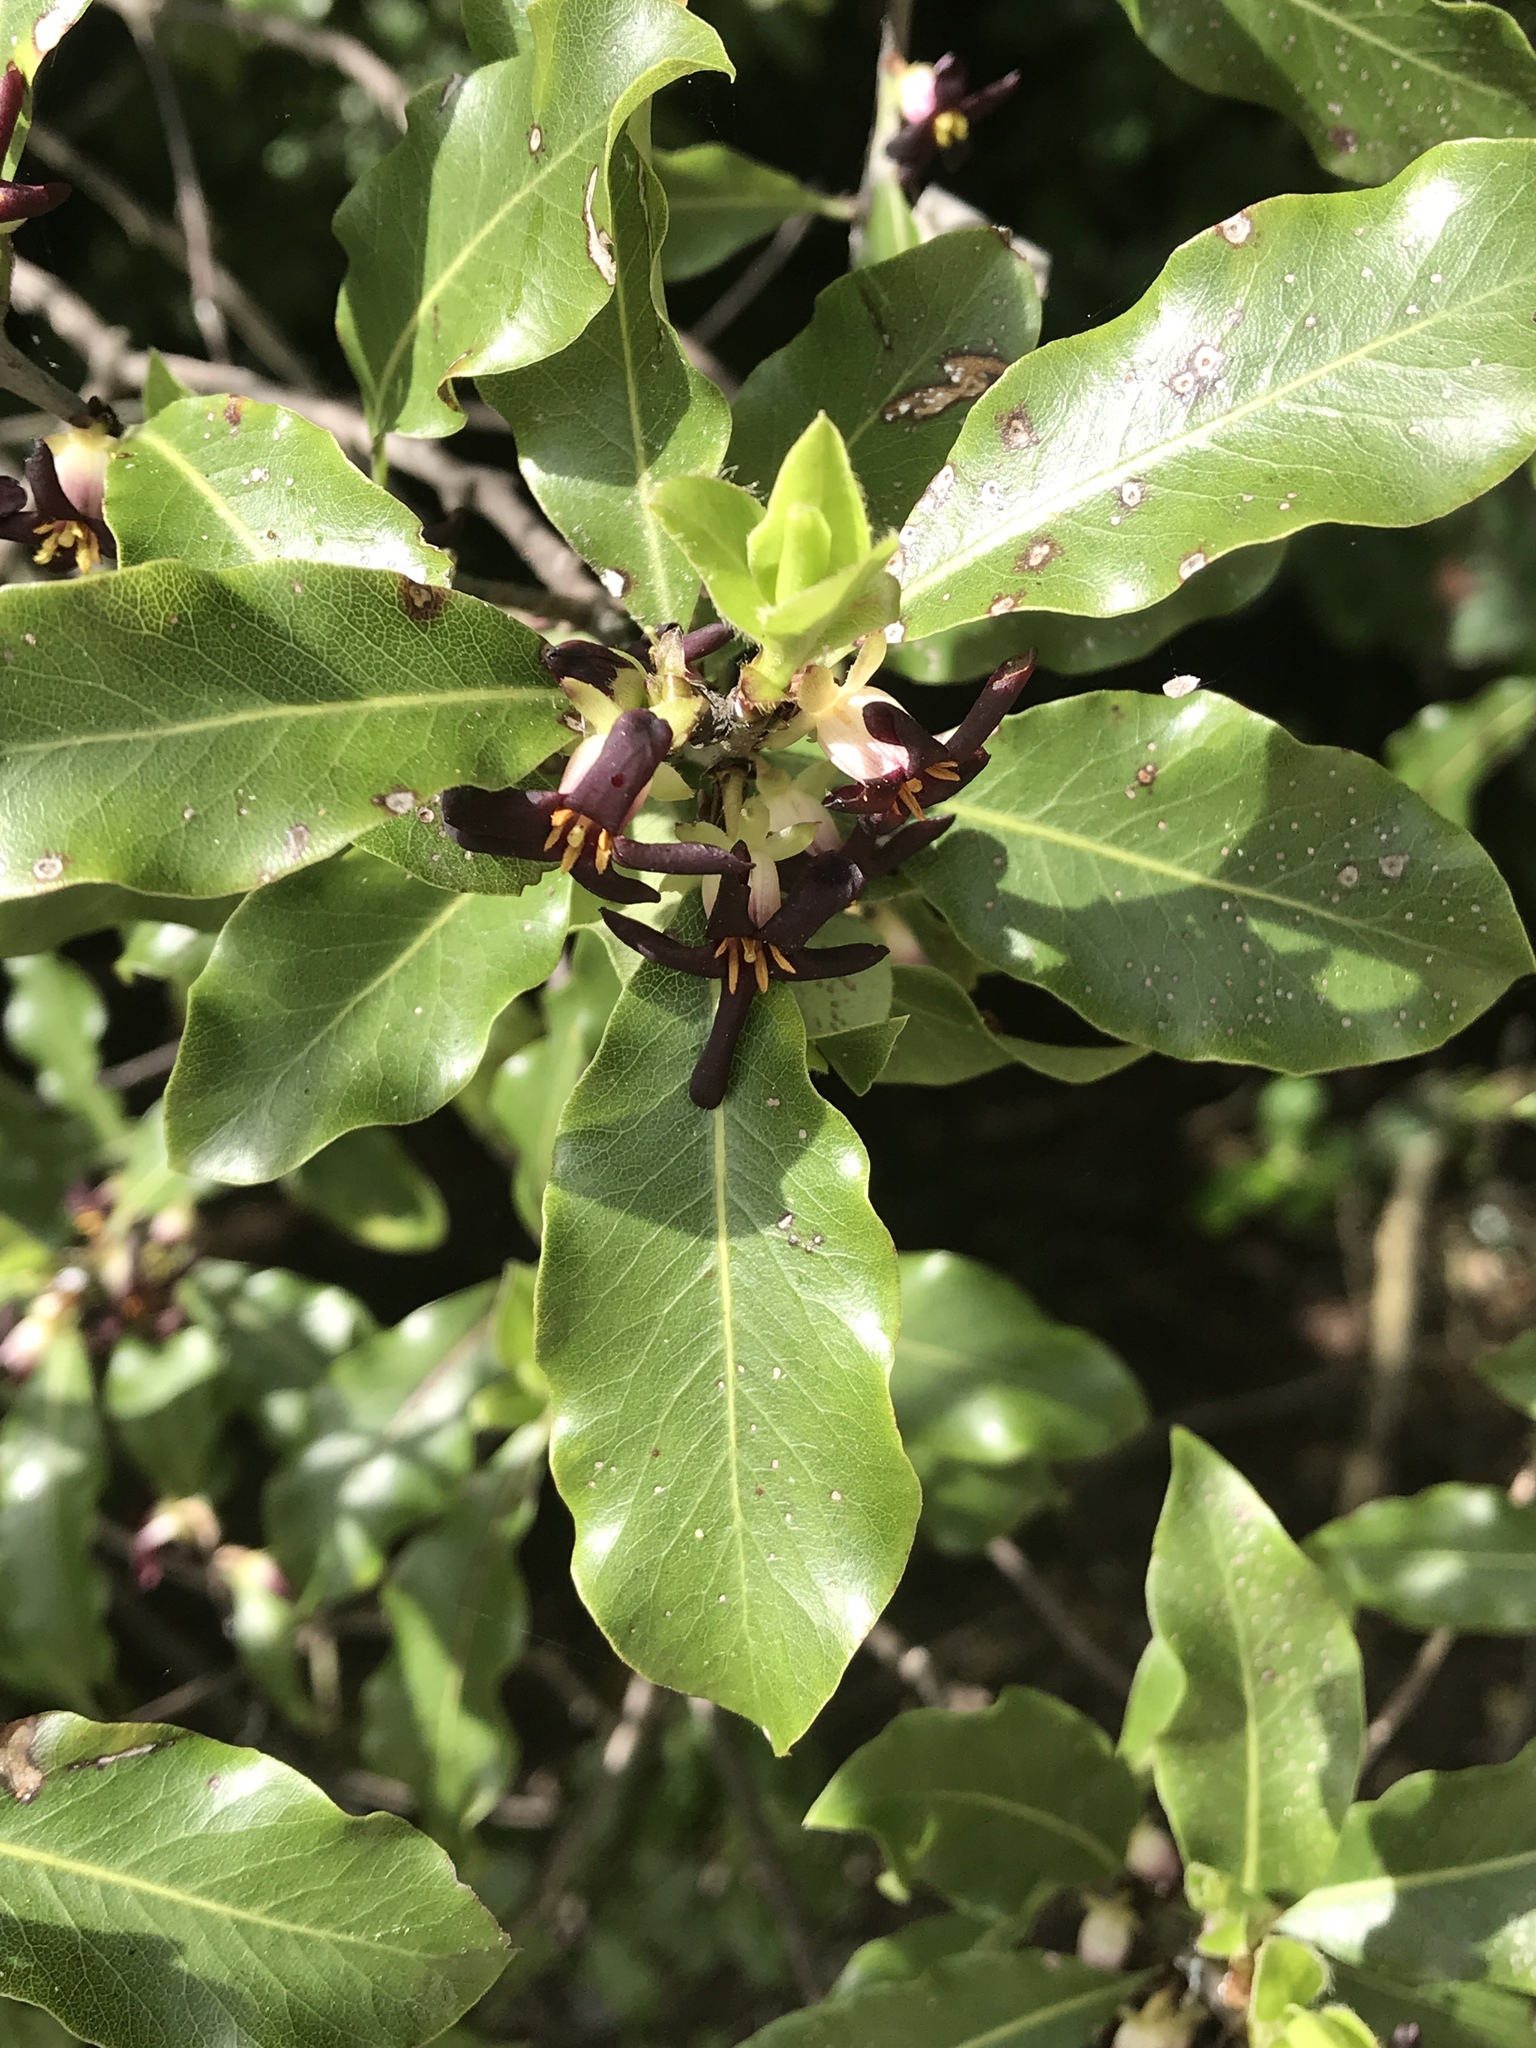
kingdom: Plantae
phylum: Tracheophyta
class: Magnoliopsida
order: Apiales
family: Pittosporaceae
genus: Pittosporum
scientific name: Pittosporum tenuifolium
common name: Kohuhu
